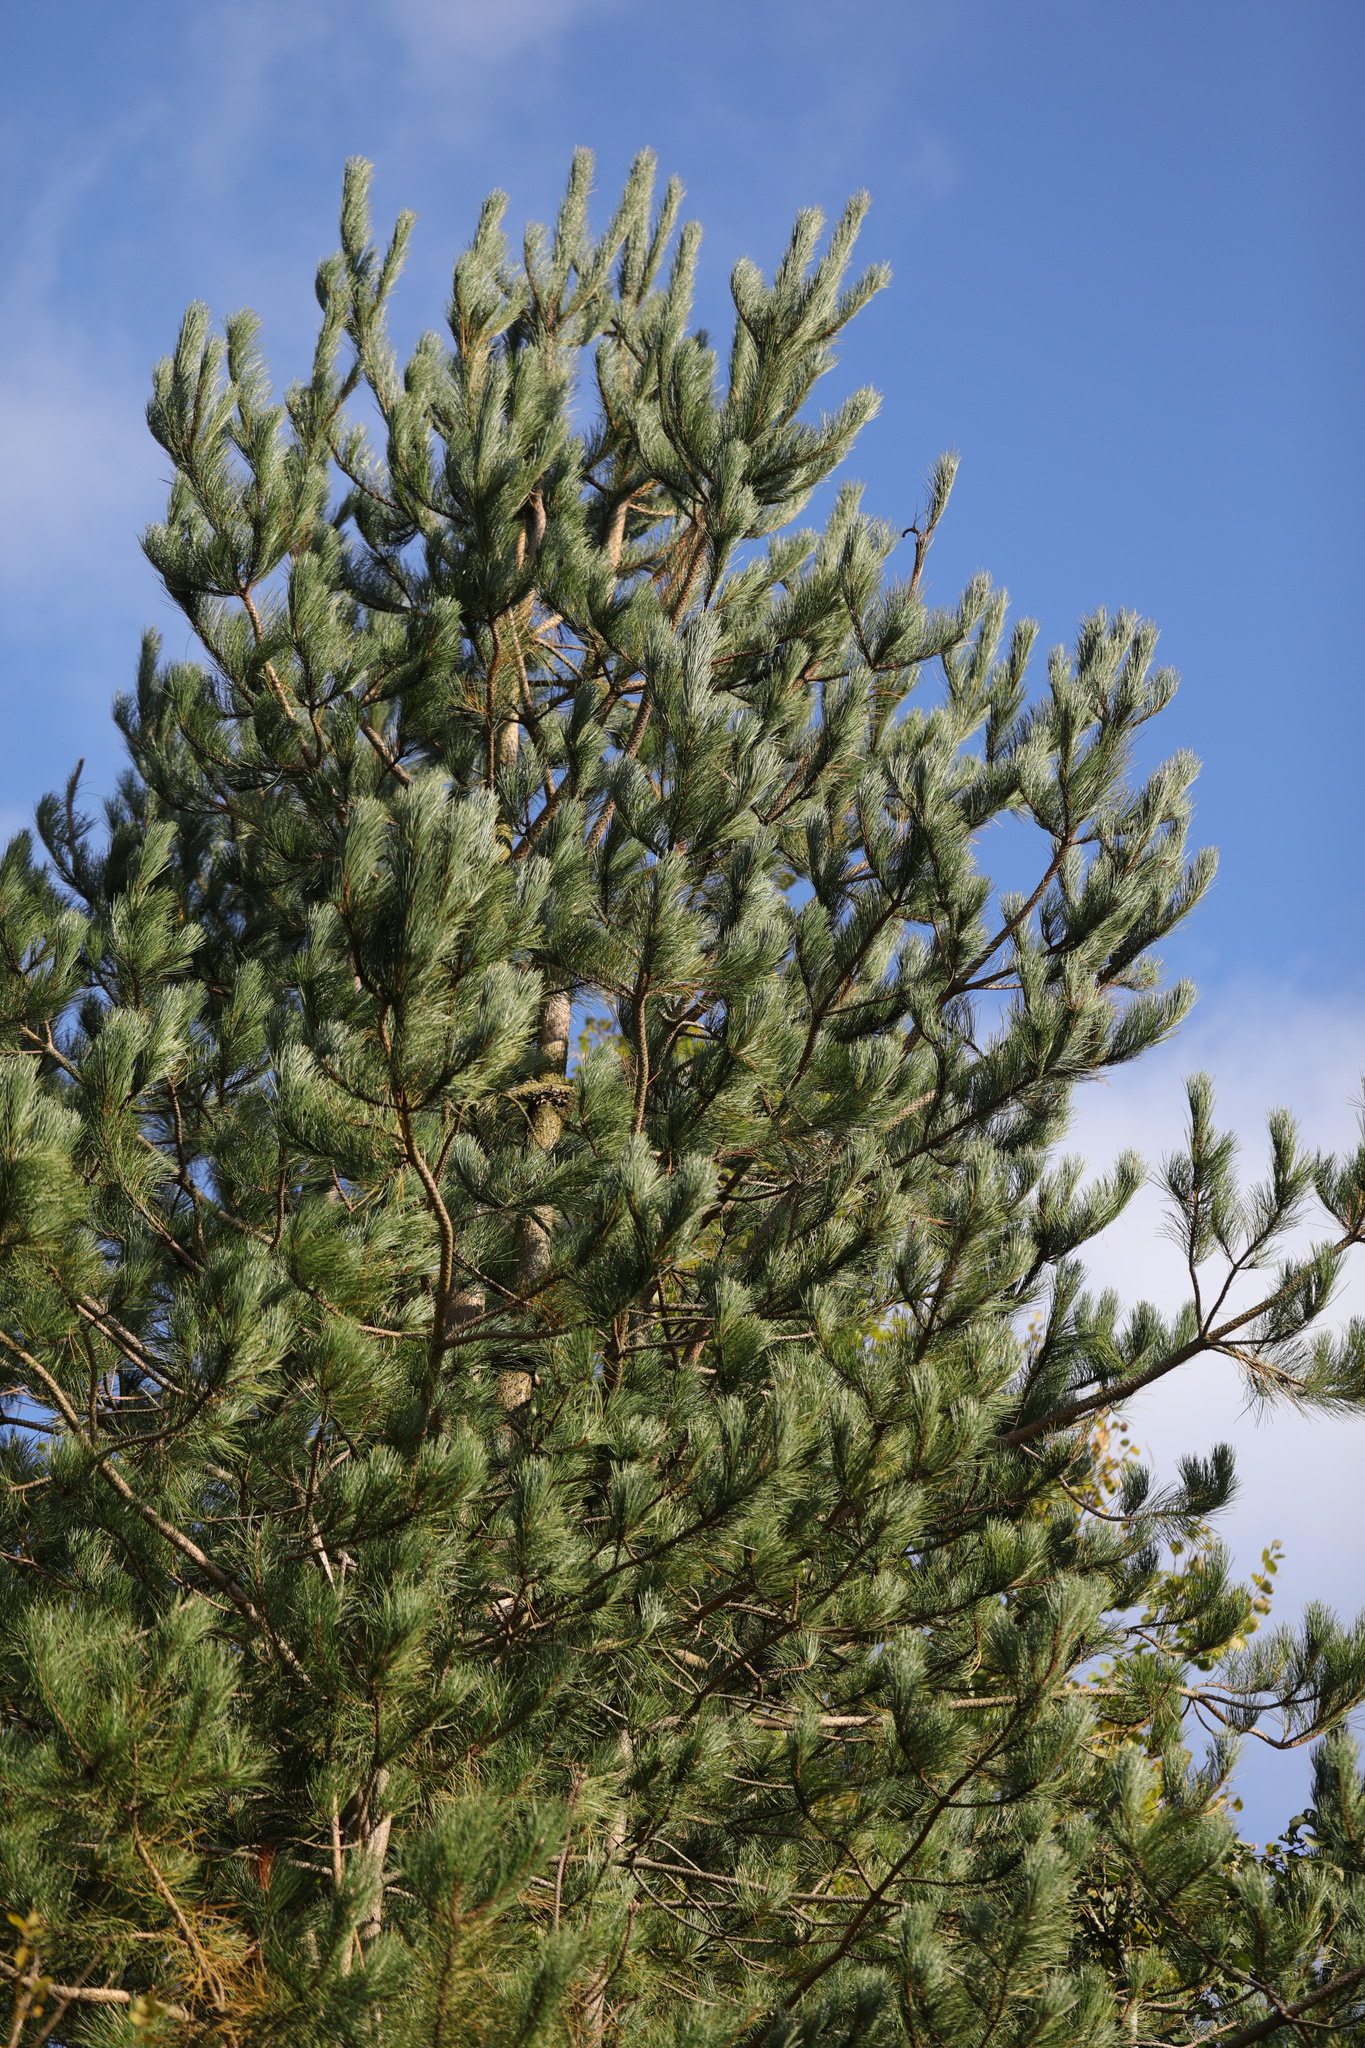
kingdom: Plantae
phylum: Tracheophyta
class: Pinopsida
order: Pinales
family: Pinaceae
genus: Pinus
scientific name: Pinus sylvestris
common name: Scots pine
